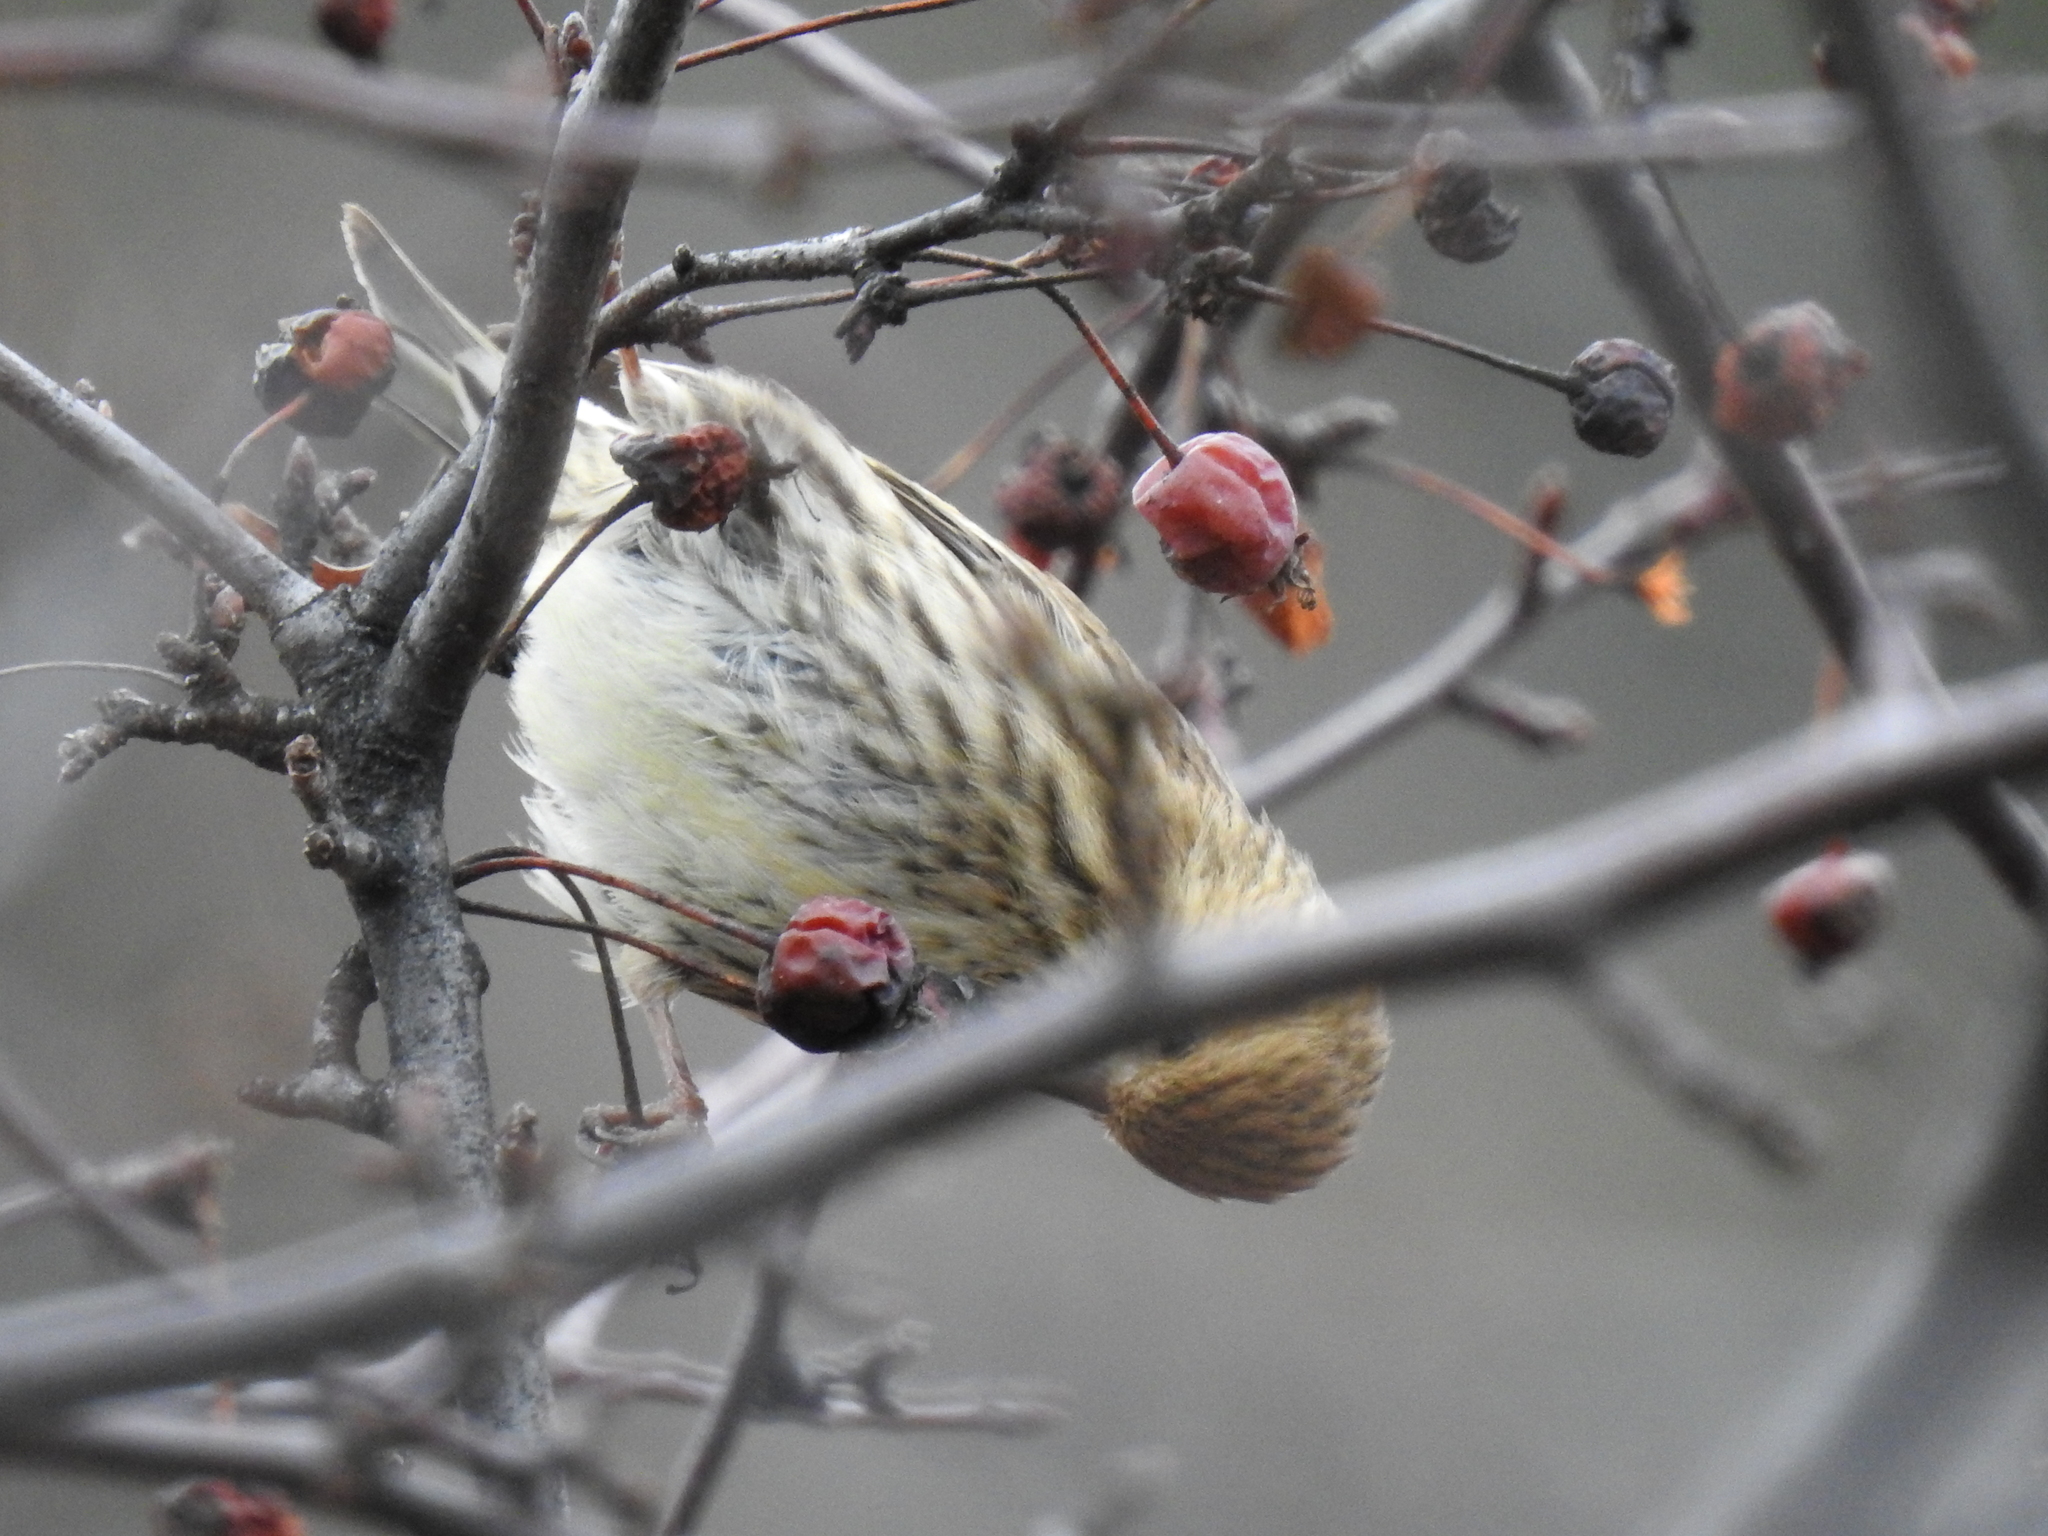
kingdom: Animalia
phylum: Chordata
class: Aves
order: Passeriformes
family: Fringillidae
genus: Spinus
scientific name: Spinus pinus
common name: Pine siskin
